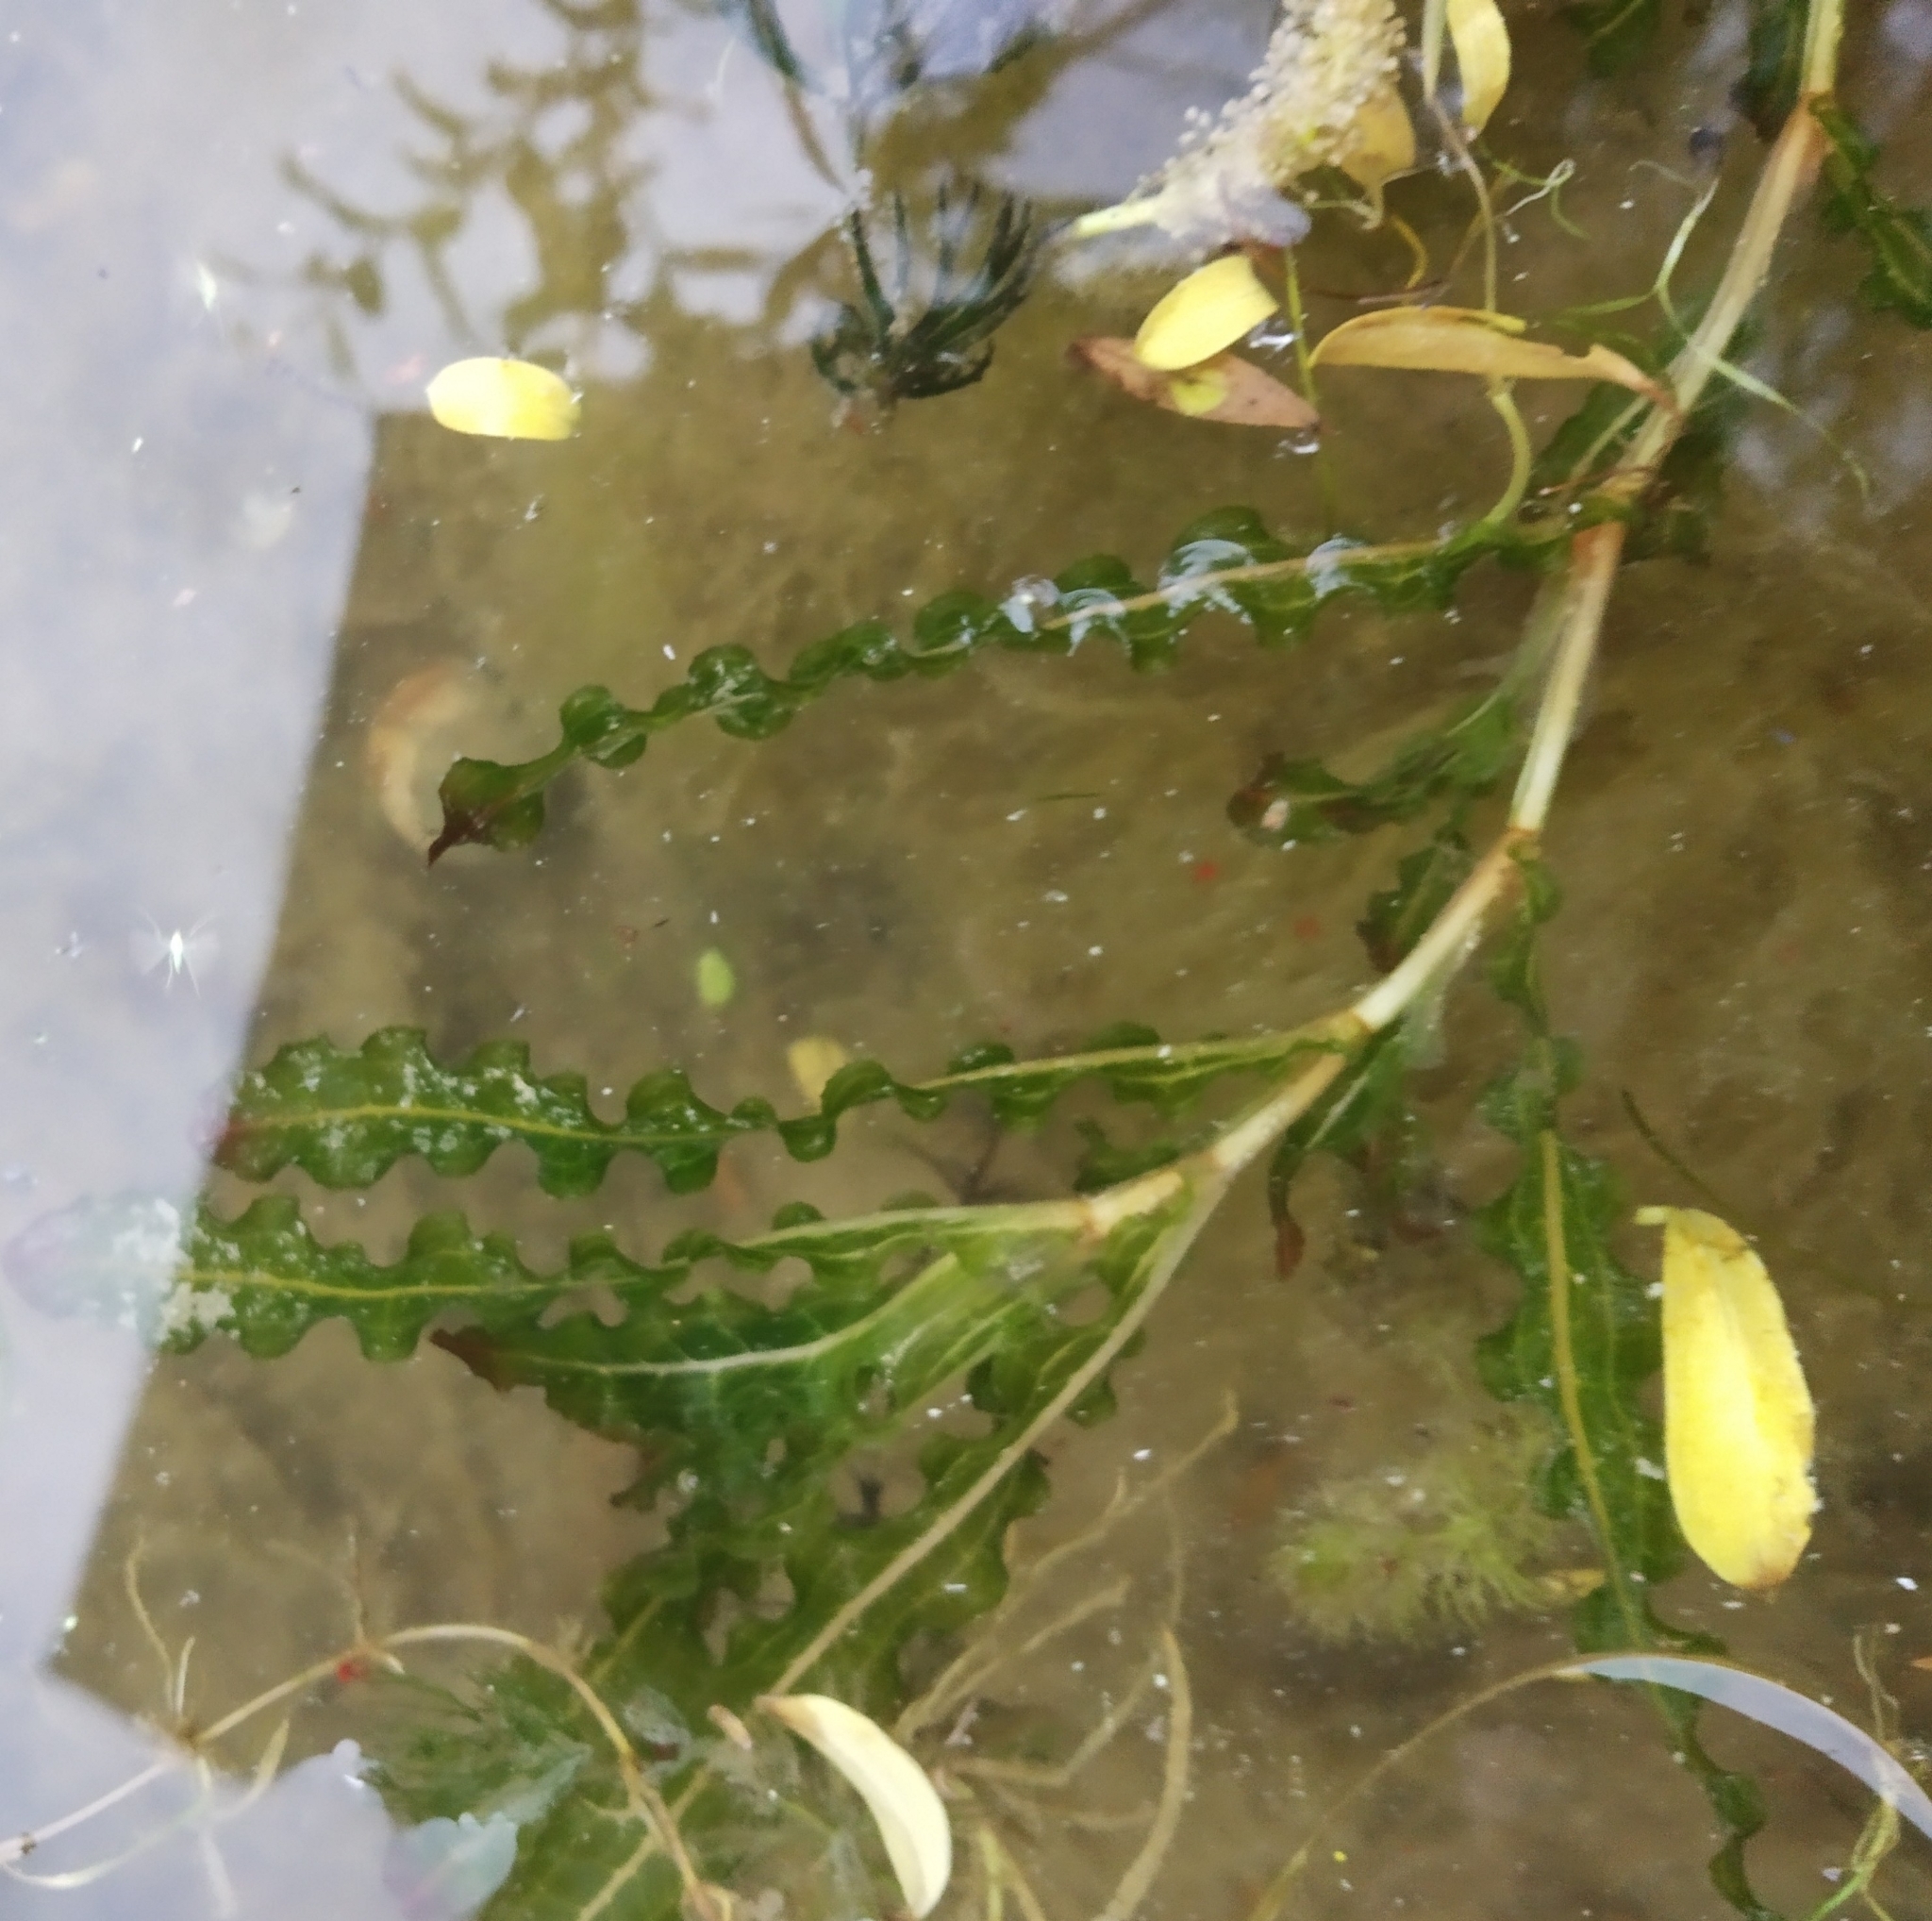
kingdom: Plantae
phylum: Tracheophyta
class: Liliopsida
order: Alismatales
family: Potamogetonaceae
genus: Potamogeton
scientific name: Potamogeton crispus
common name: Curled pondweed
